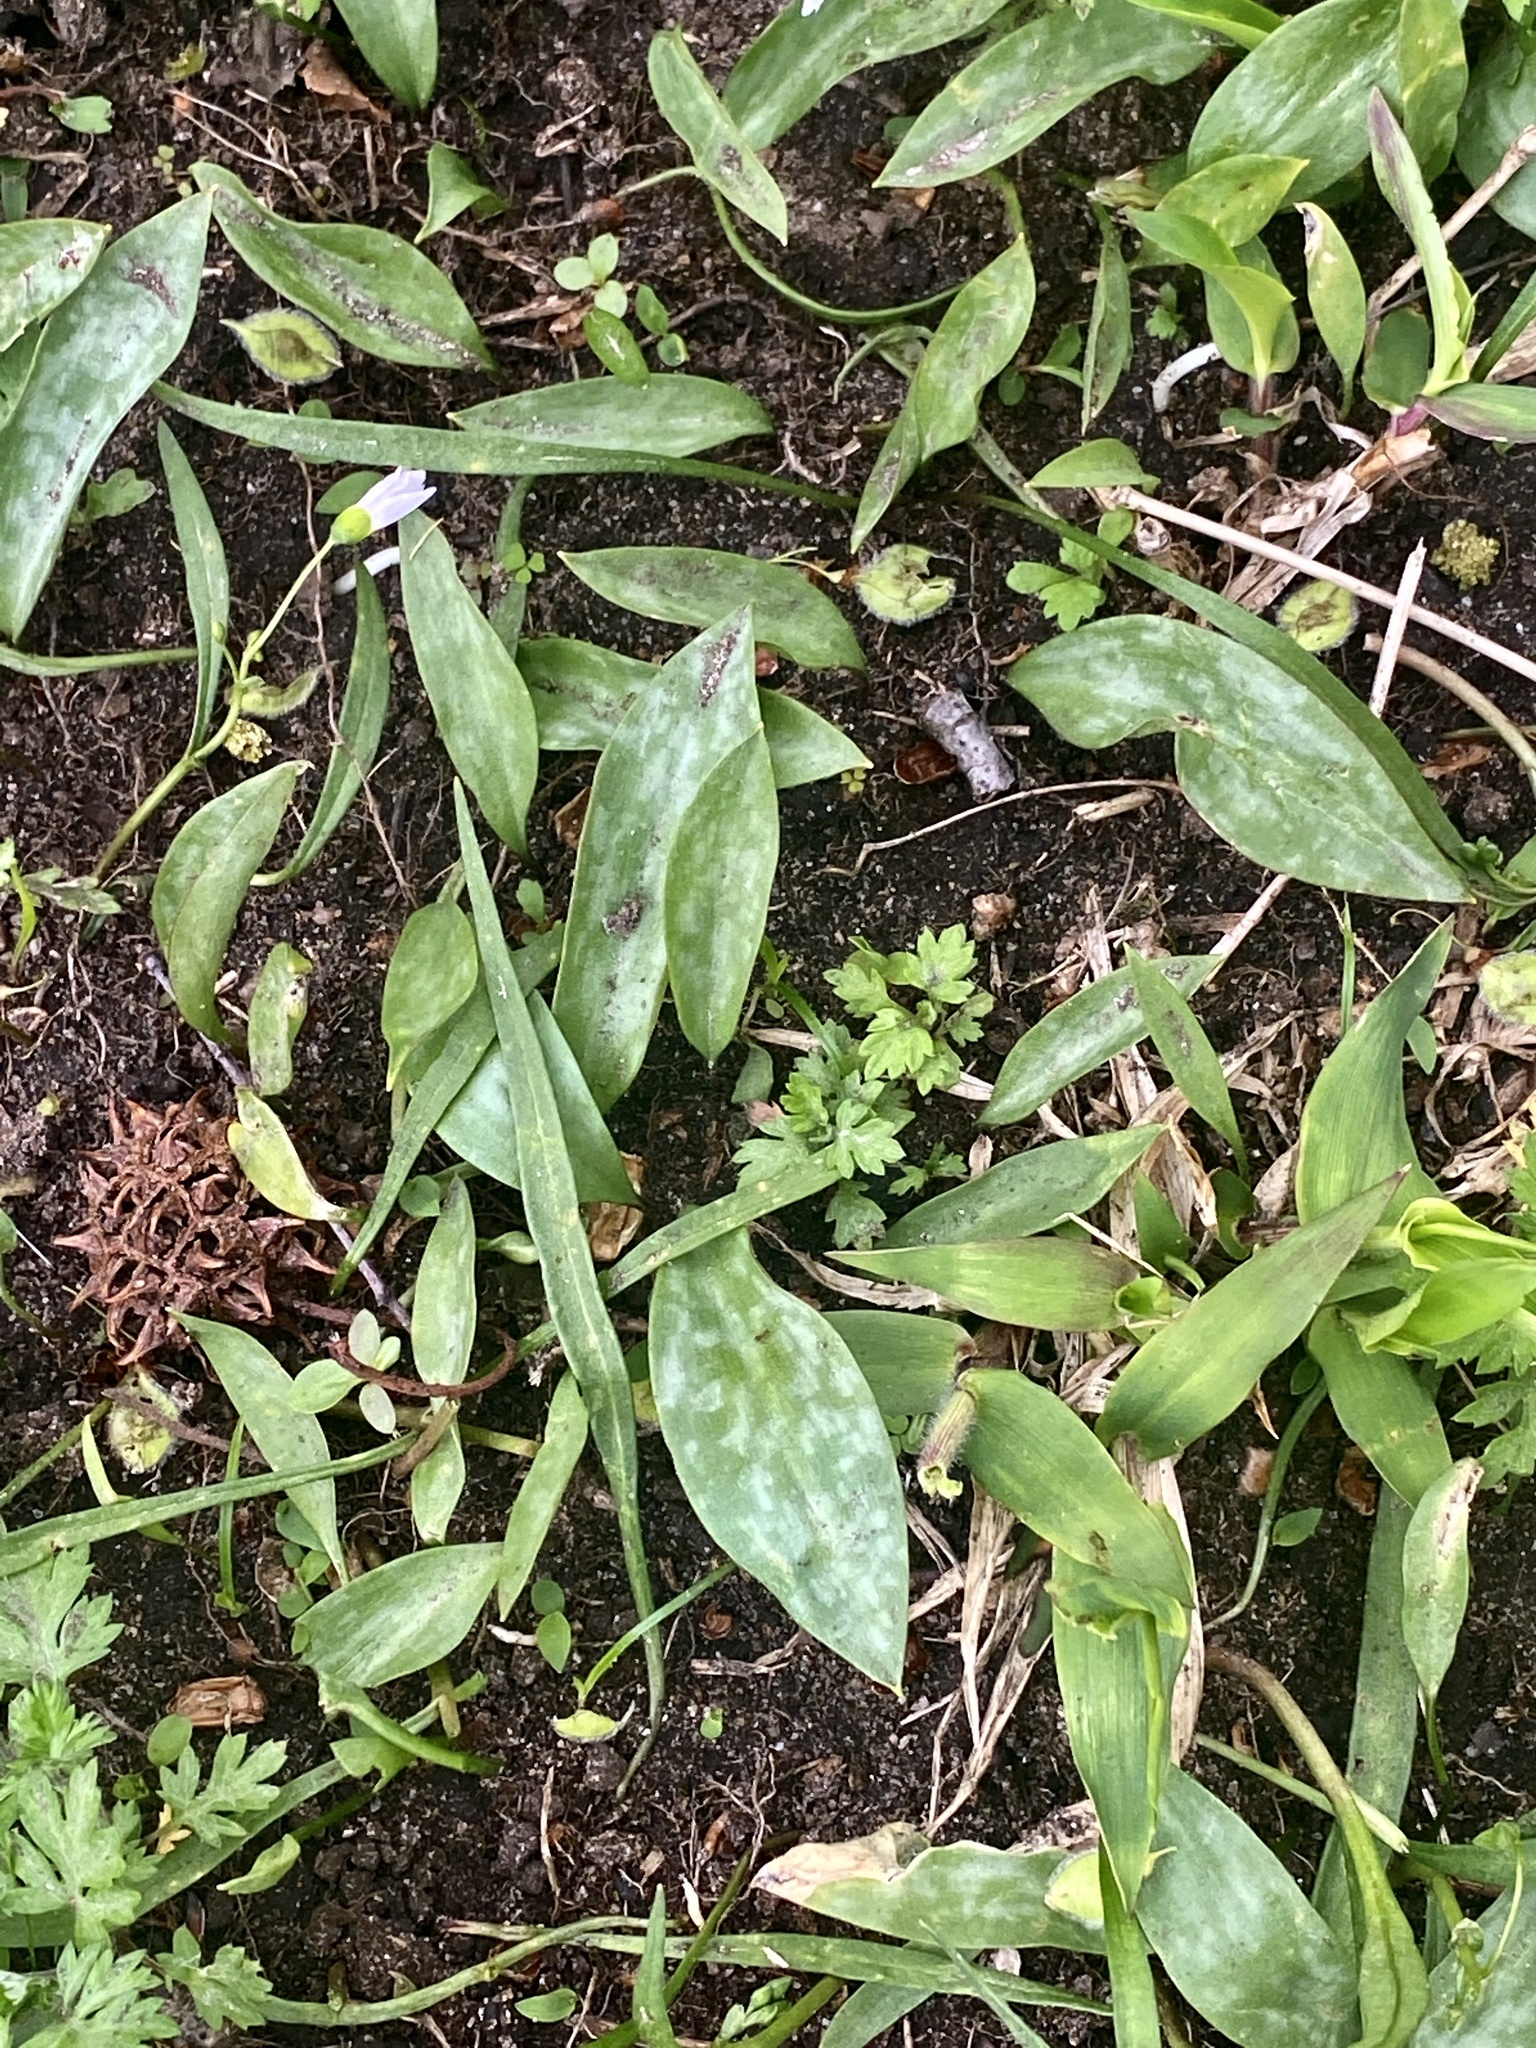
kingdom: Plantae
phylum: Tracheophyta
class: Liliopsida
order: Liliales
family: Liliaceae
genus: Erythronium
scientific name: Erythronium americanum
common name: Yellow adder's-tongue
